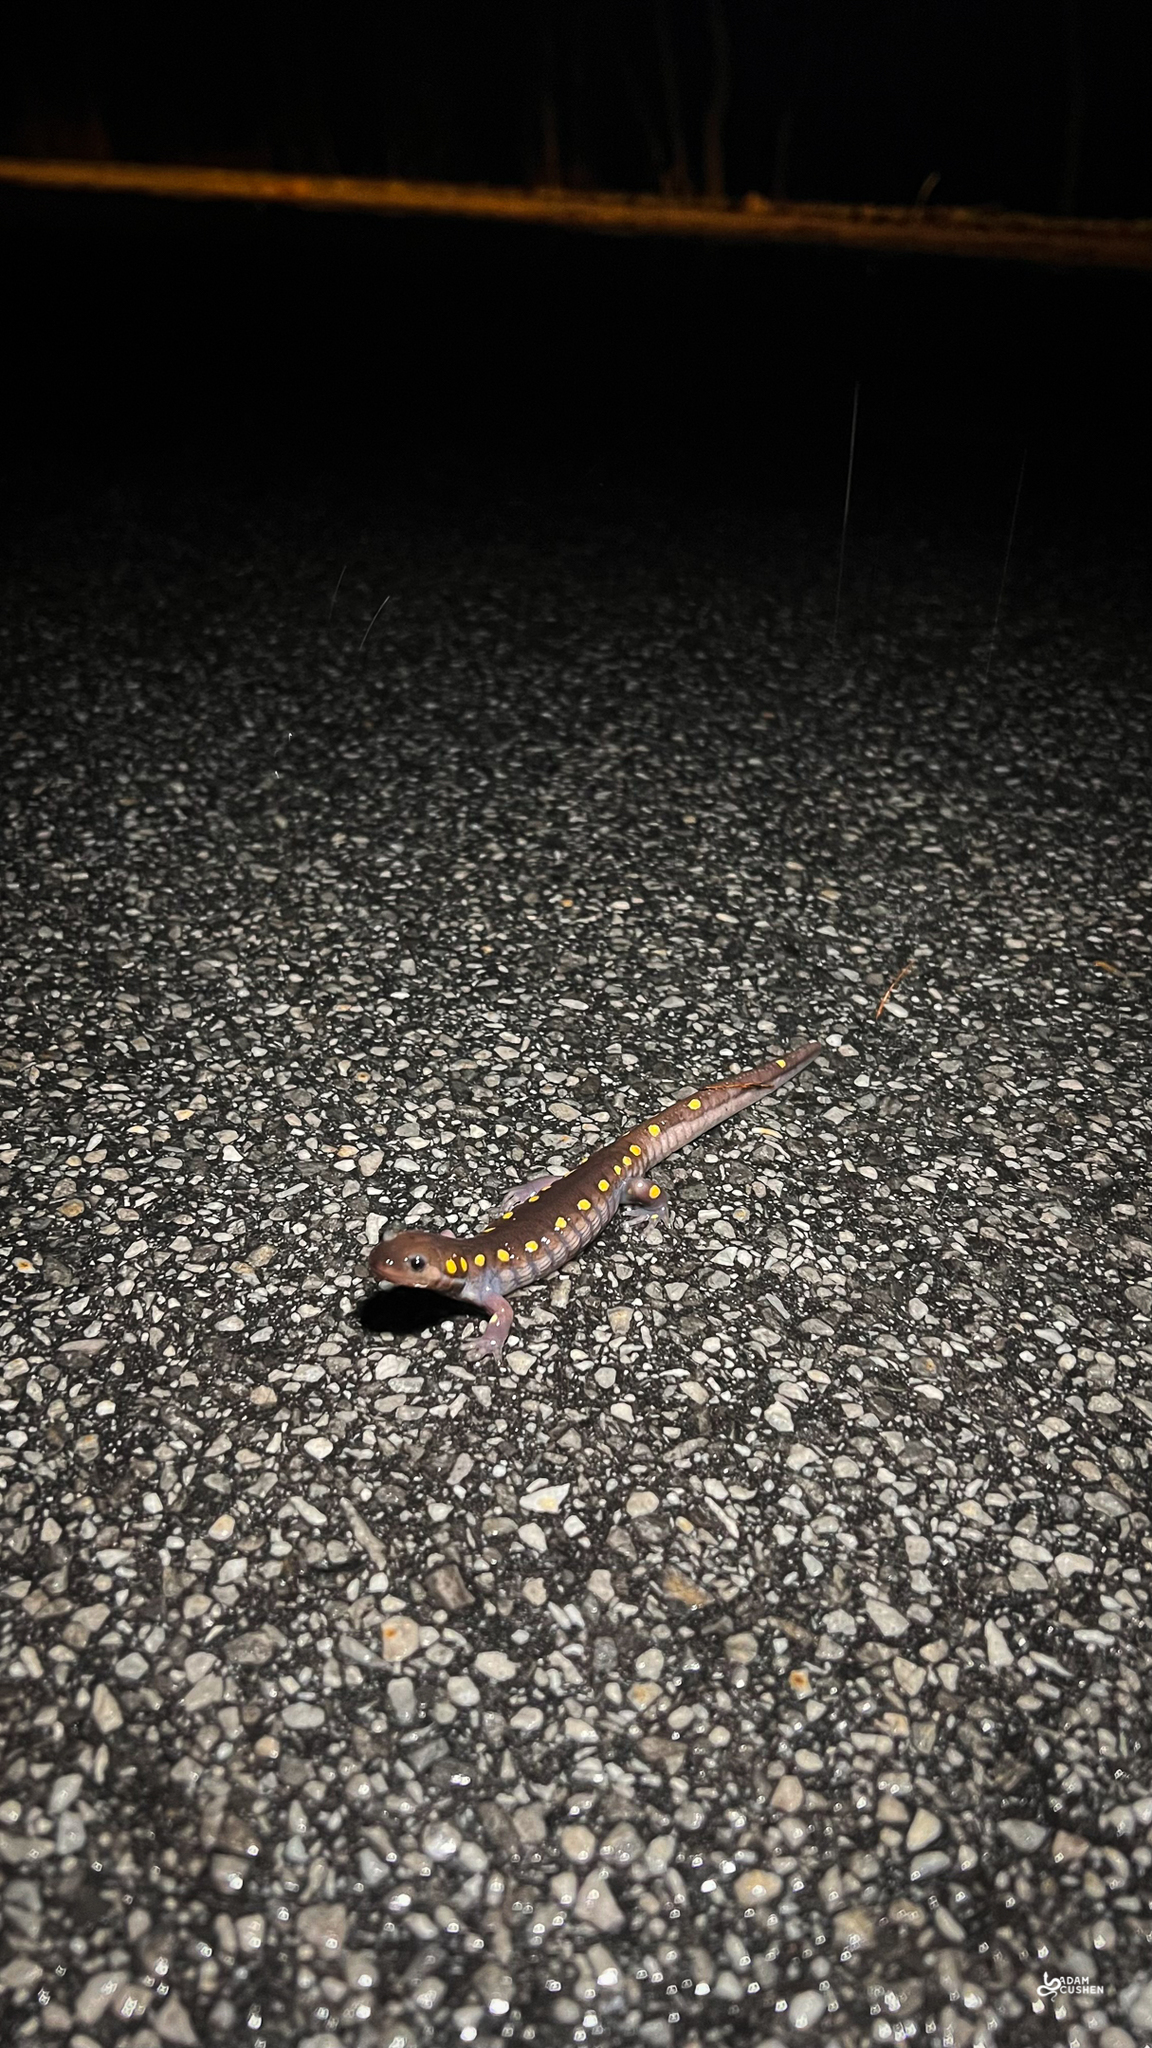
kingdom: Animalia
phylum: Chordata
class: Amphibia
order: Caudata
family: Ambystomatidae
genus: Ambystoma
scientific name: Ambystoma maculatum
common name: Spotted salamander
